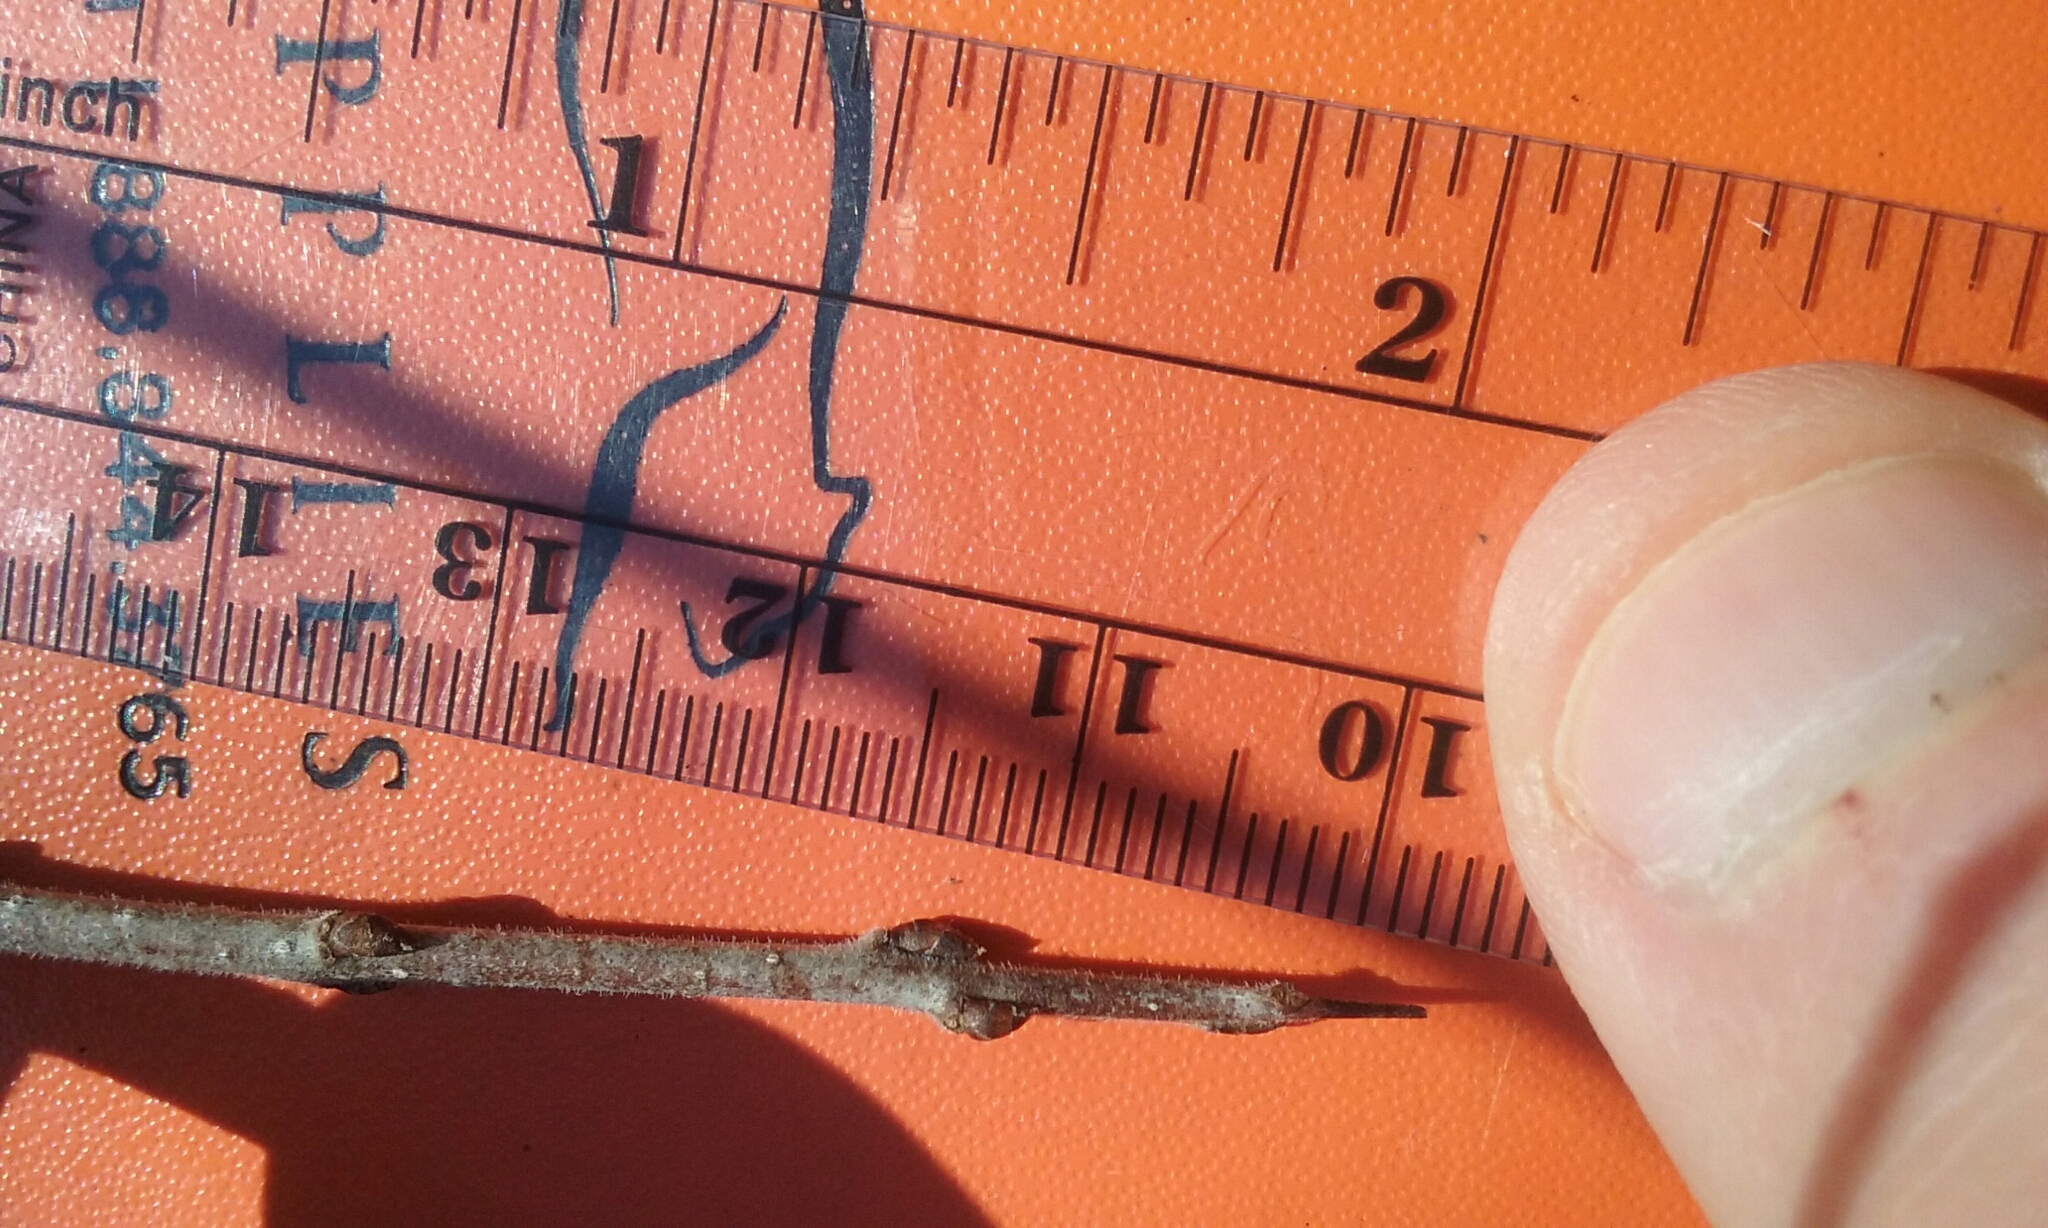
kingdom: Plantae
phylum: Tracheophyta
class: Magnoliopsida
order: Rosales
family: Rhamnaceae
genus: Rhamnus
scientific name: Rhamnus cathartica
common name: Common buckthorn
